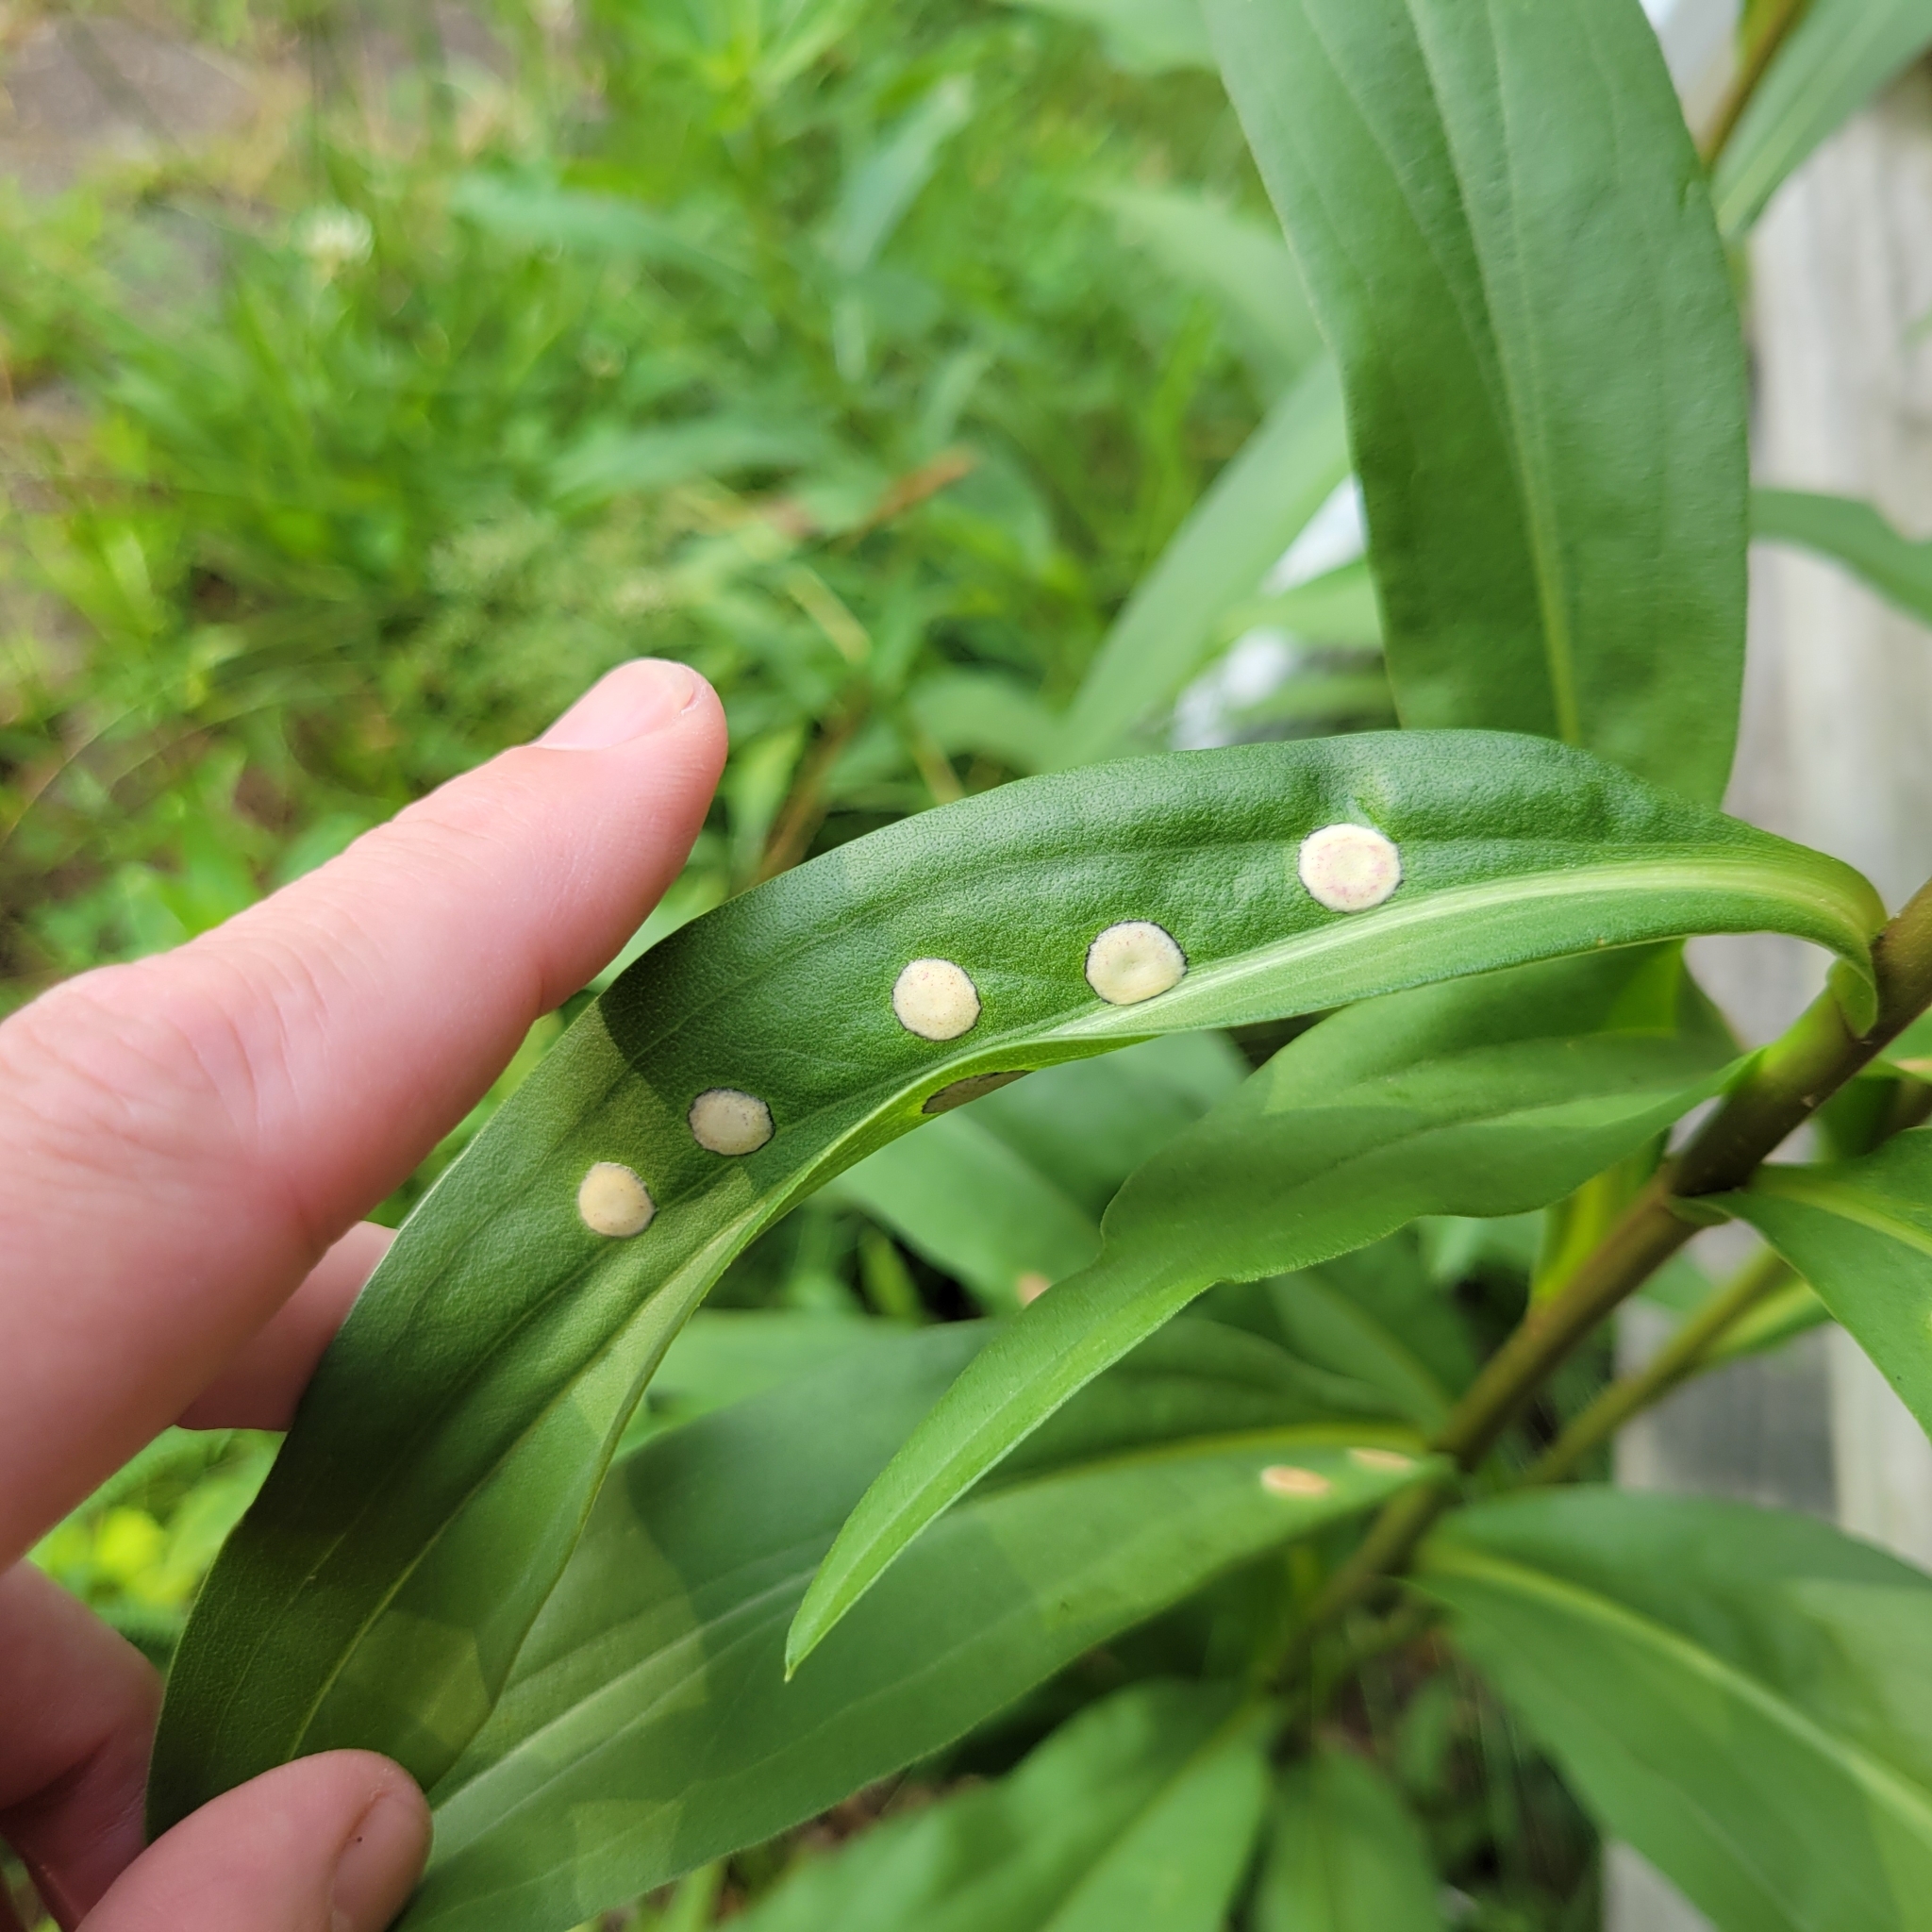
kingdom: Animalia
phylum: Arthropoda
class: Insecta
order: Diptera
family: Cecidomyiidae
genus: Asteromyia
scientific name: Asteromyia carbonifera
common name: Carbonifera goldenrod gall midge
